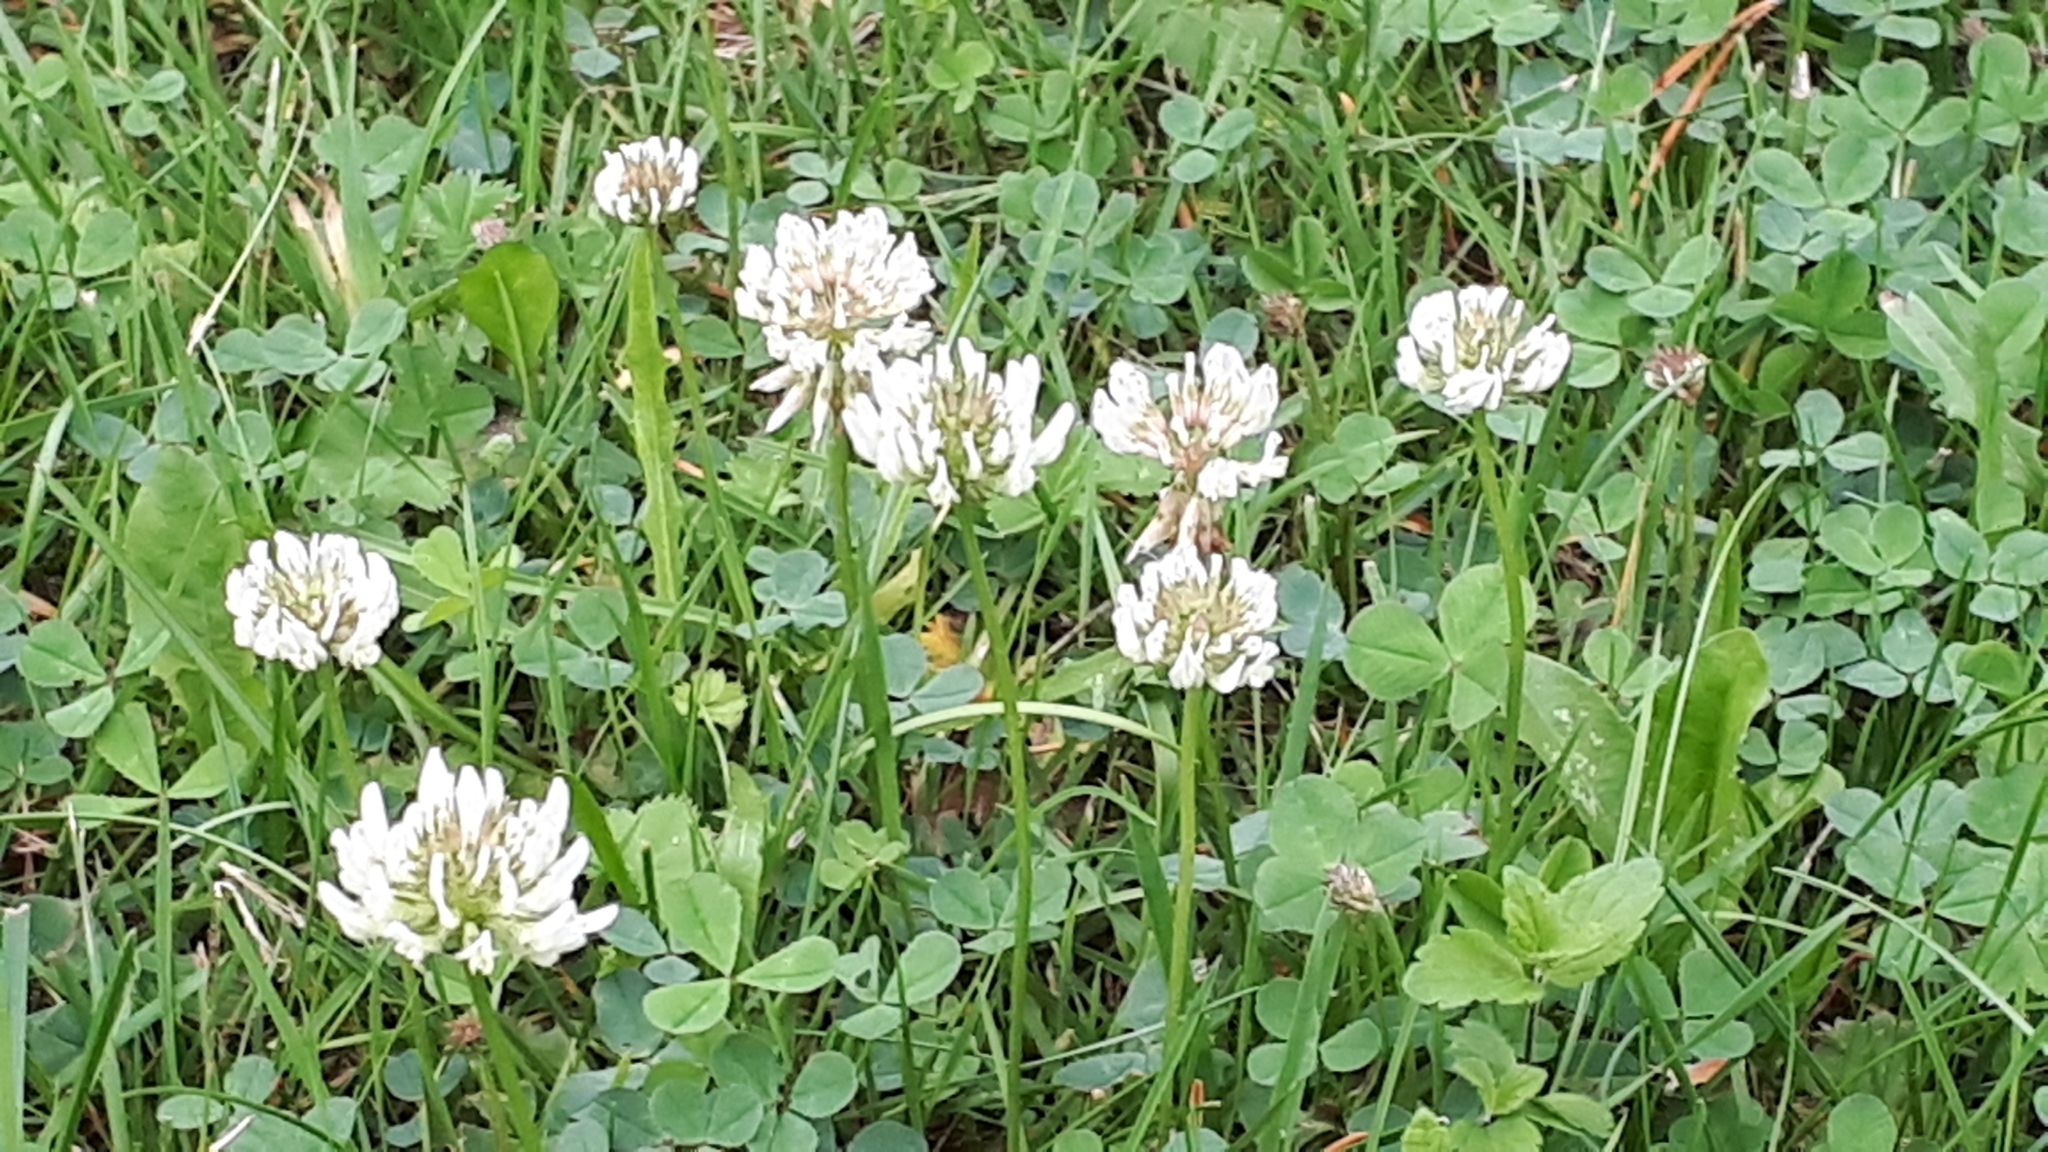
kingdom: Plantae
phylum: Tracheophyta
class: Magnoliopsida
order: Fabales
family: Fabaceae
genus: Trifolium
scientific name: Trifolium repens
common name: White clover
